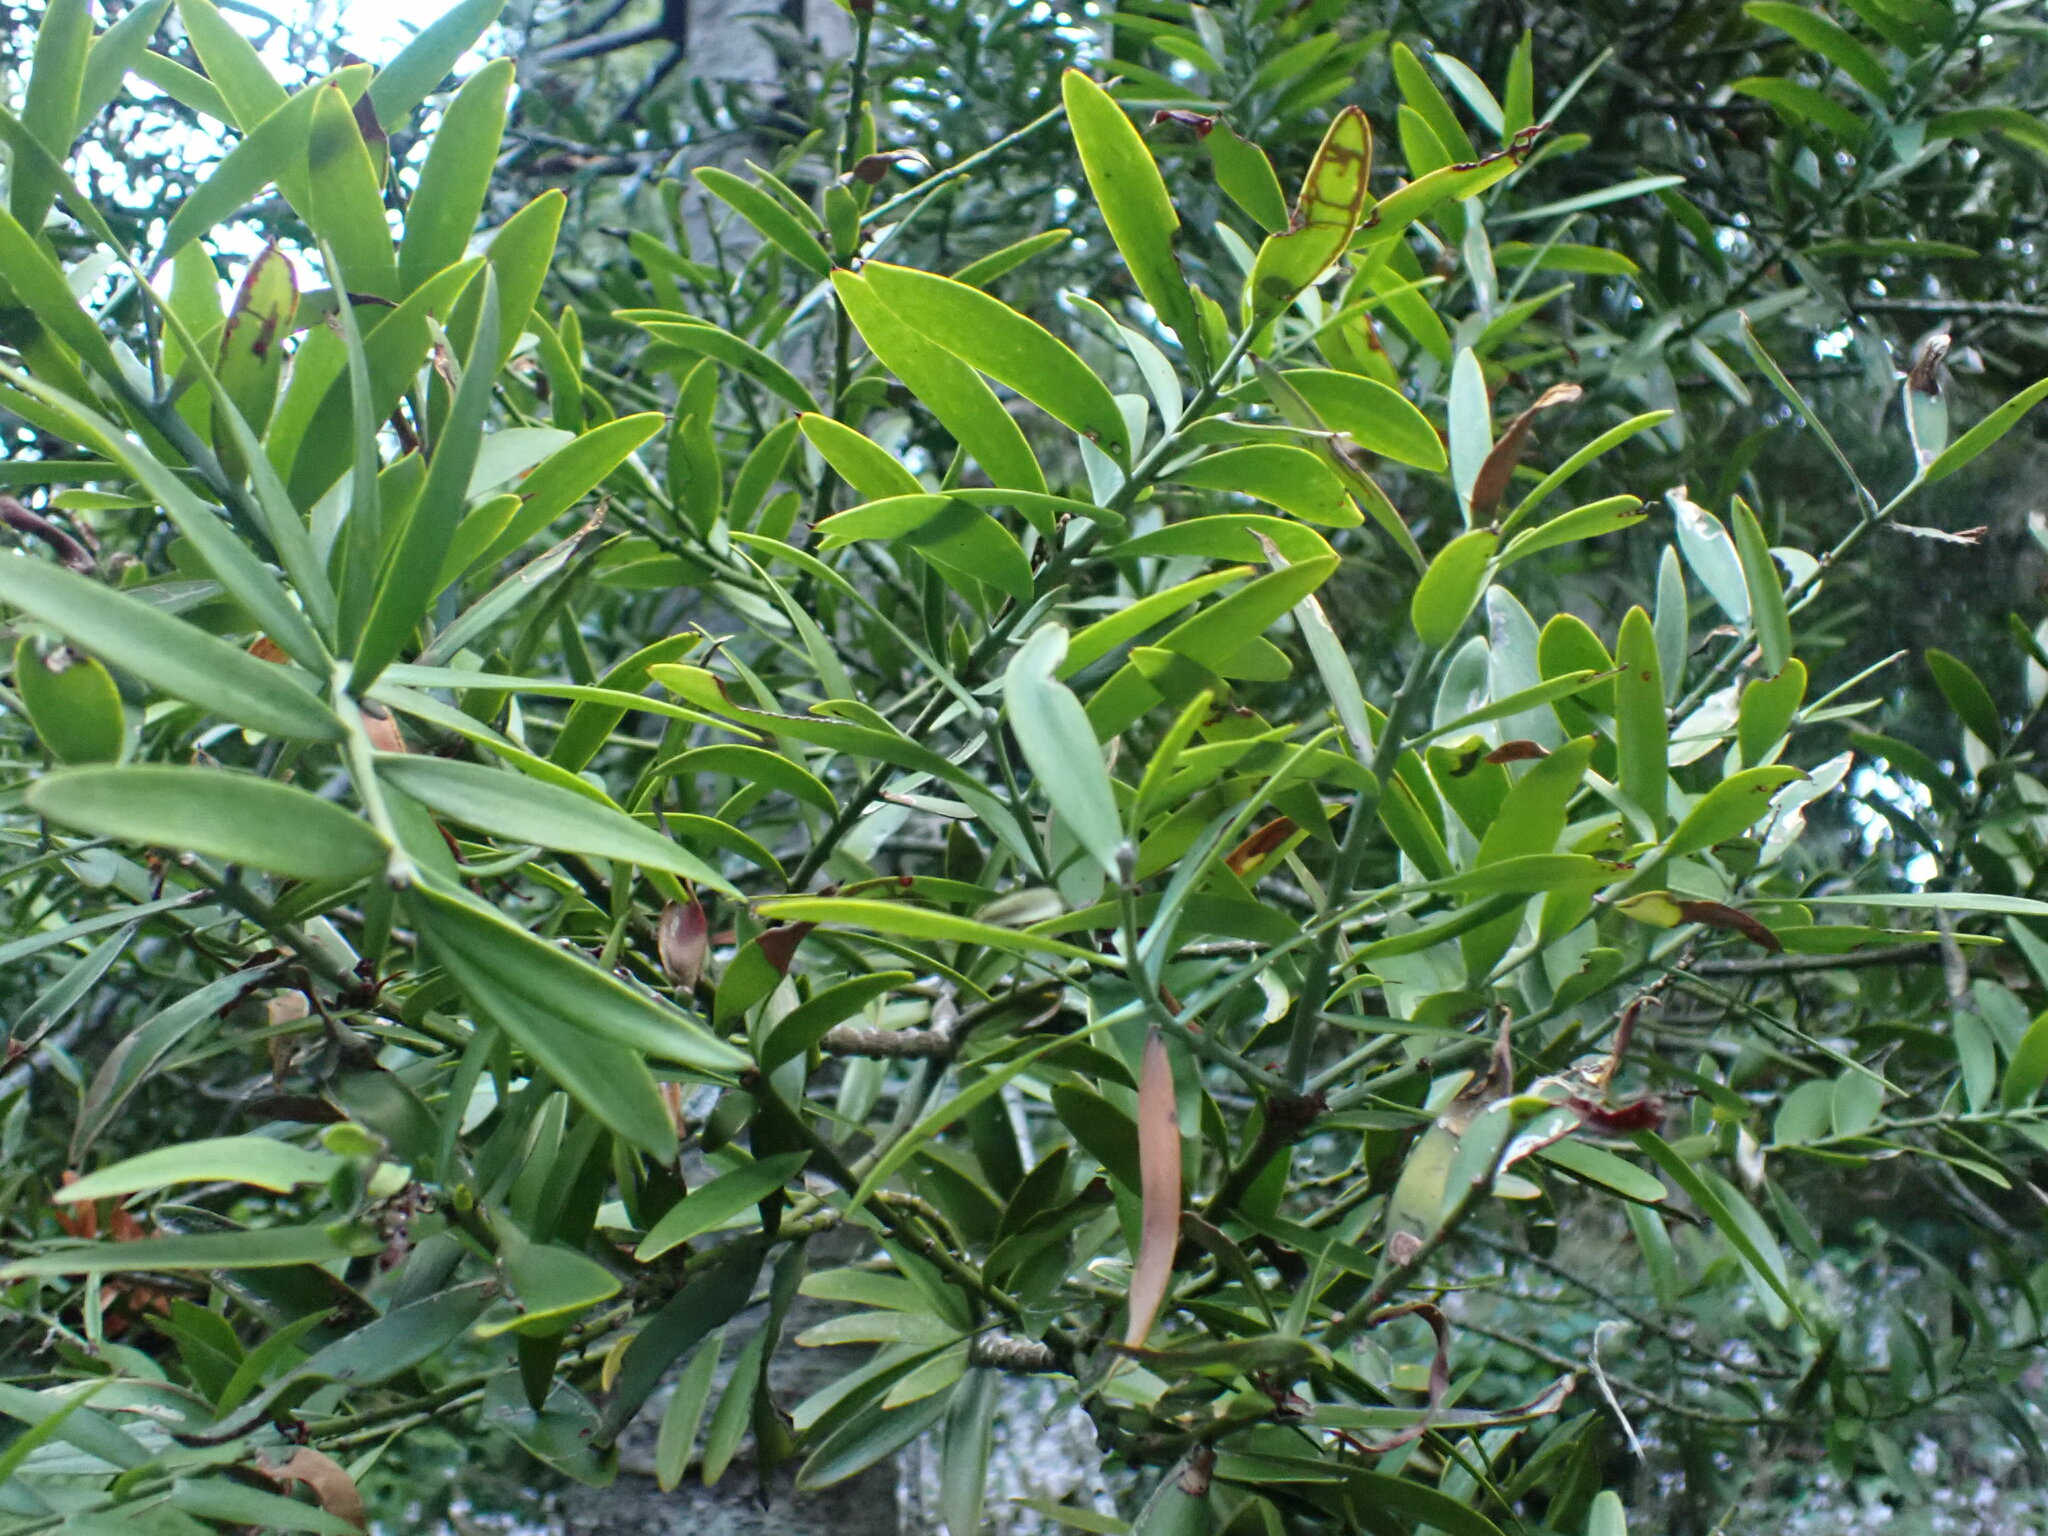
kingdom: Plantae
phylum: Tracheophyta
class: Pinopsida
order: Pinales
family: Araucariaceae
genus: Agathis
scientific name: Agathis australis
